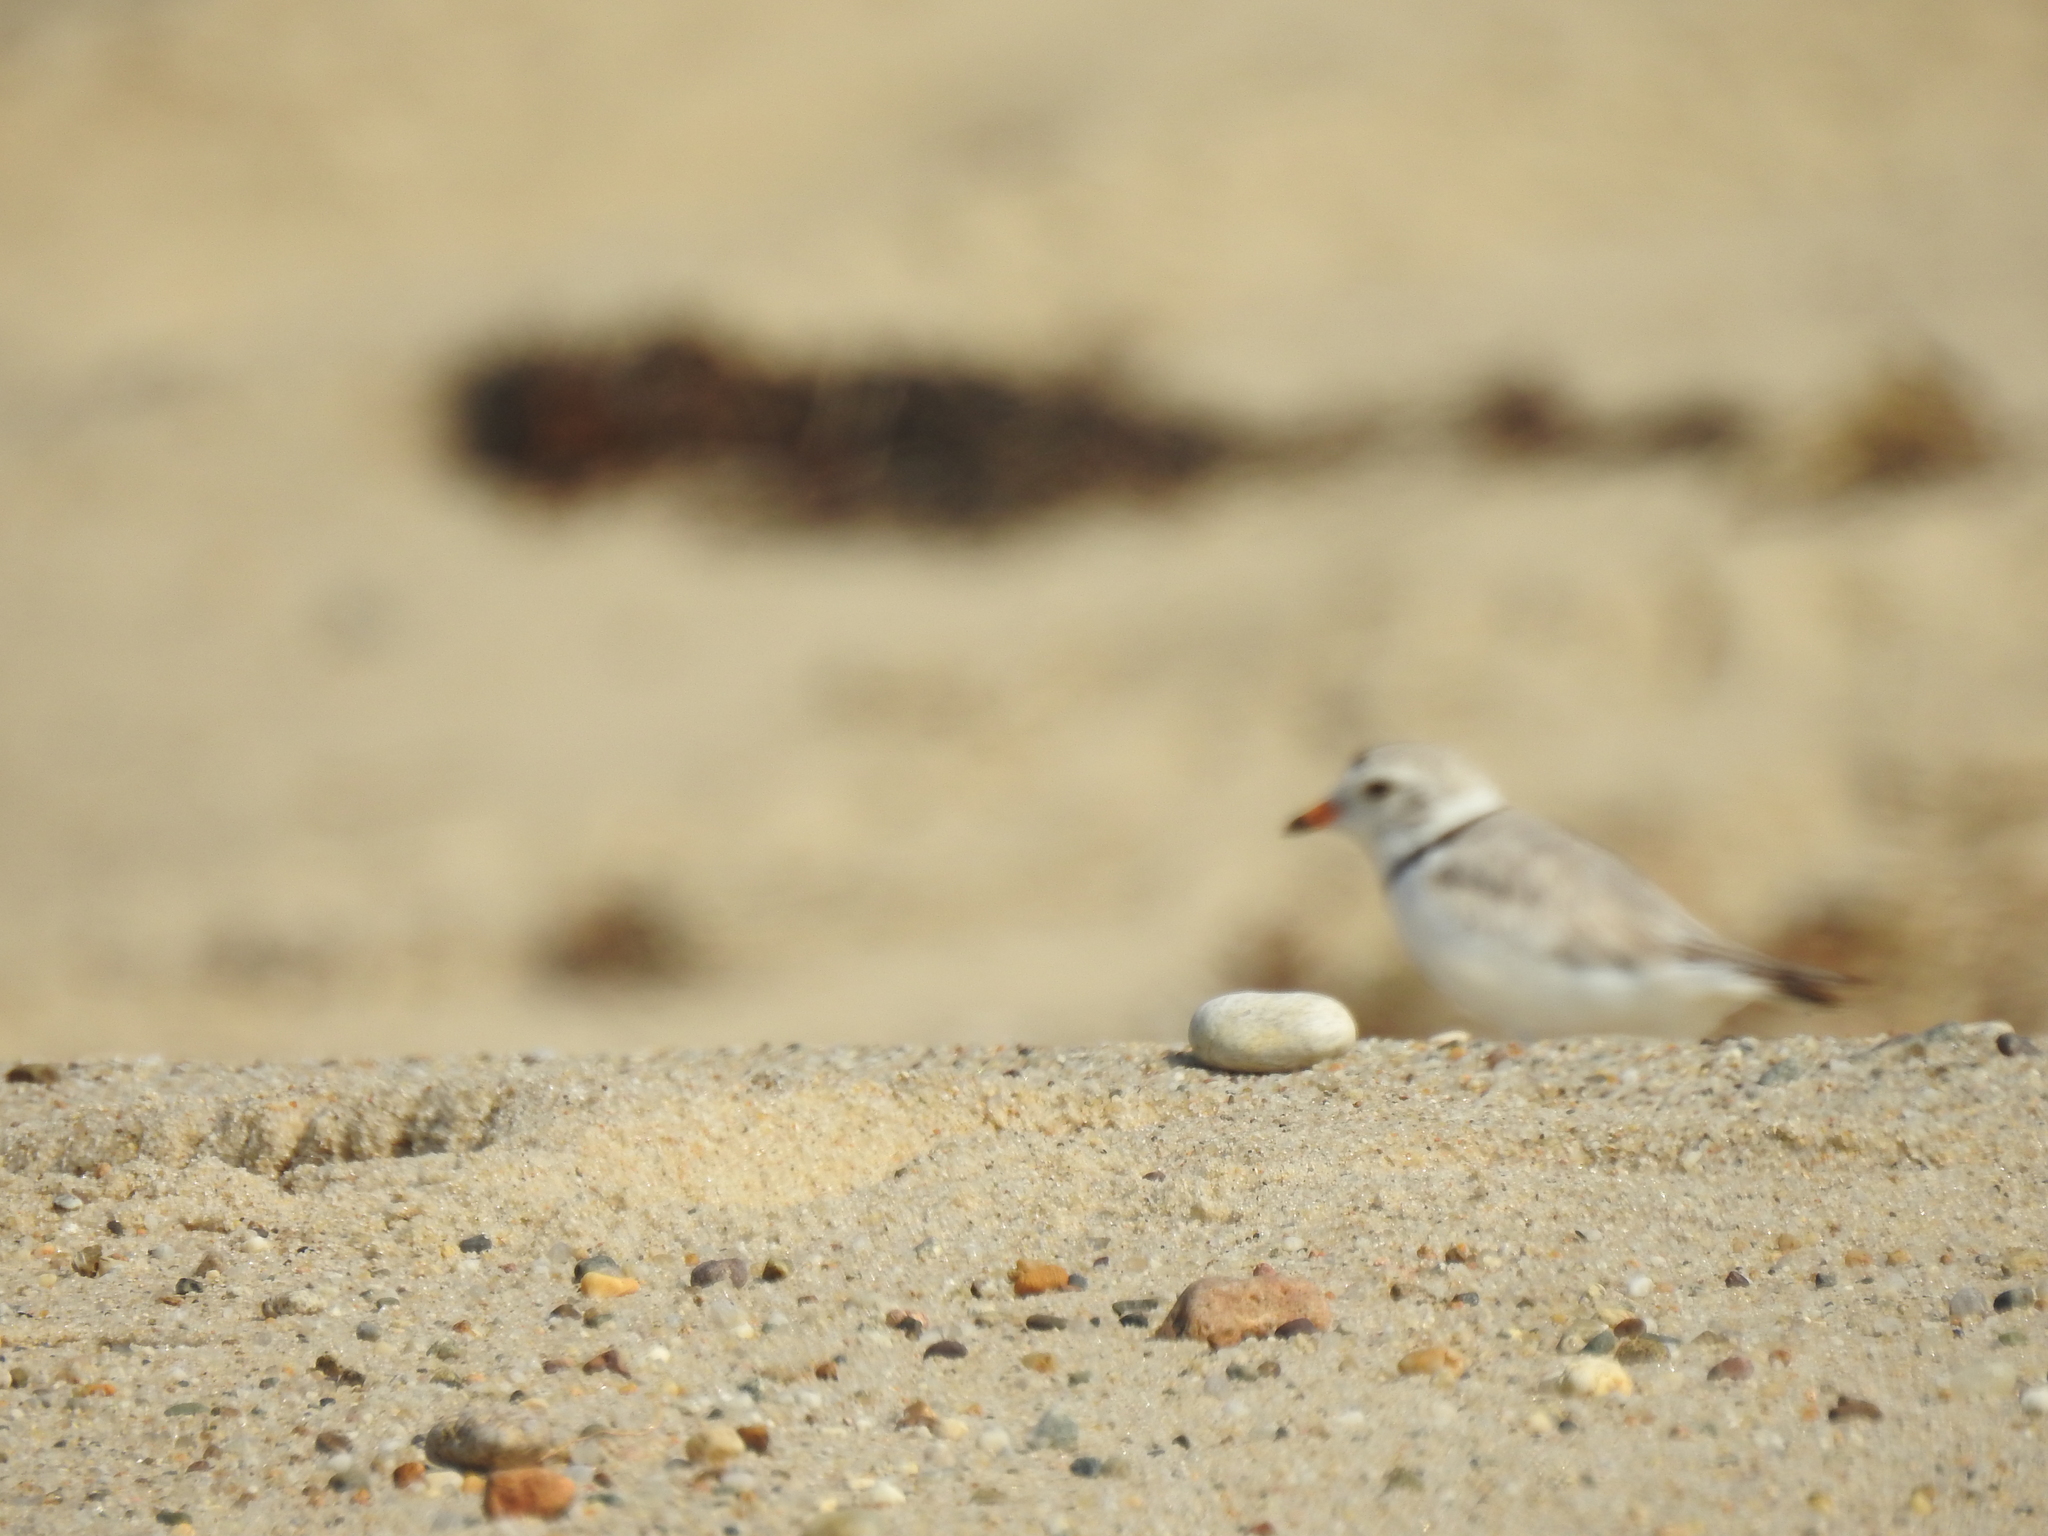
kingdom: Animalia
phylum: Chordata
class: Aves
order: Charadriiformes
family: Charadriidae
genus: Charadrius
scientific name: Charadrius melodus
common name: Piping plover
